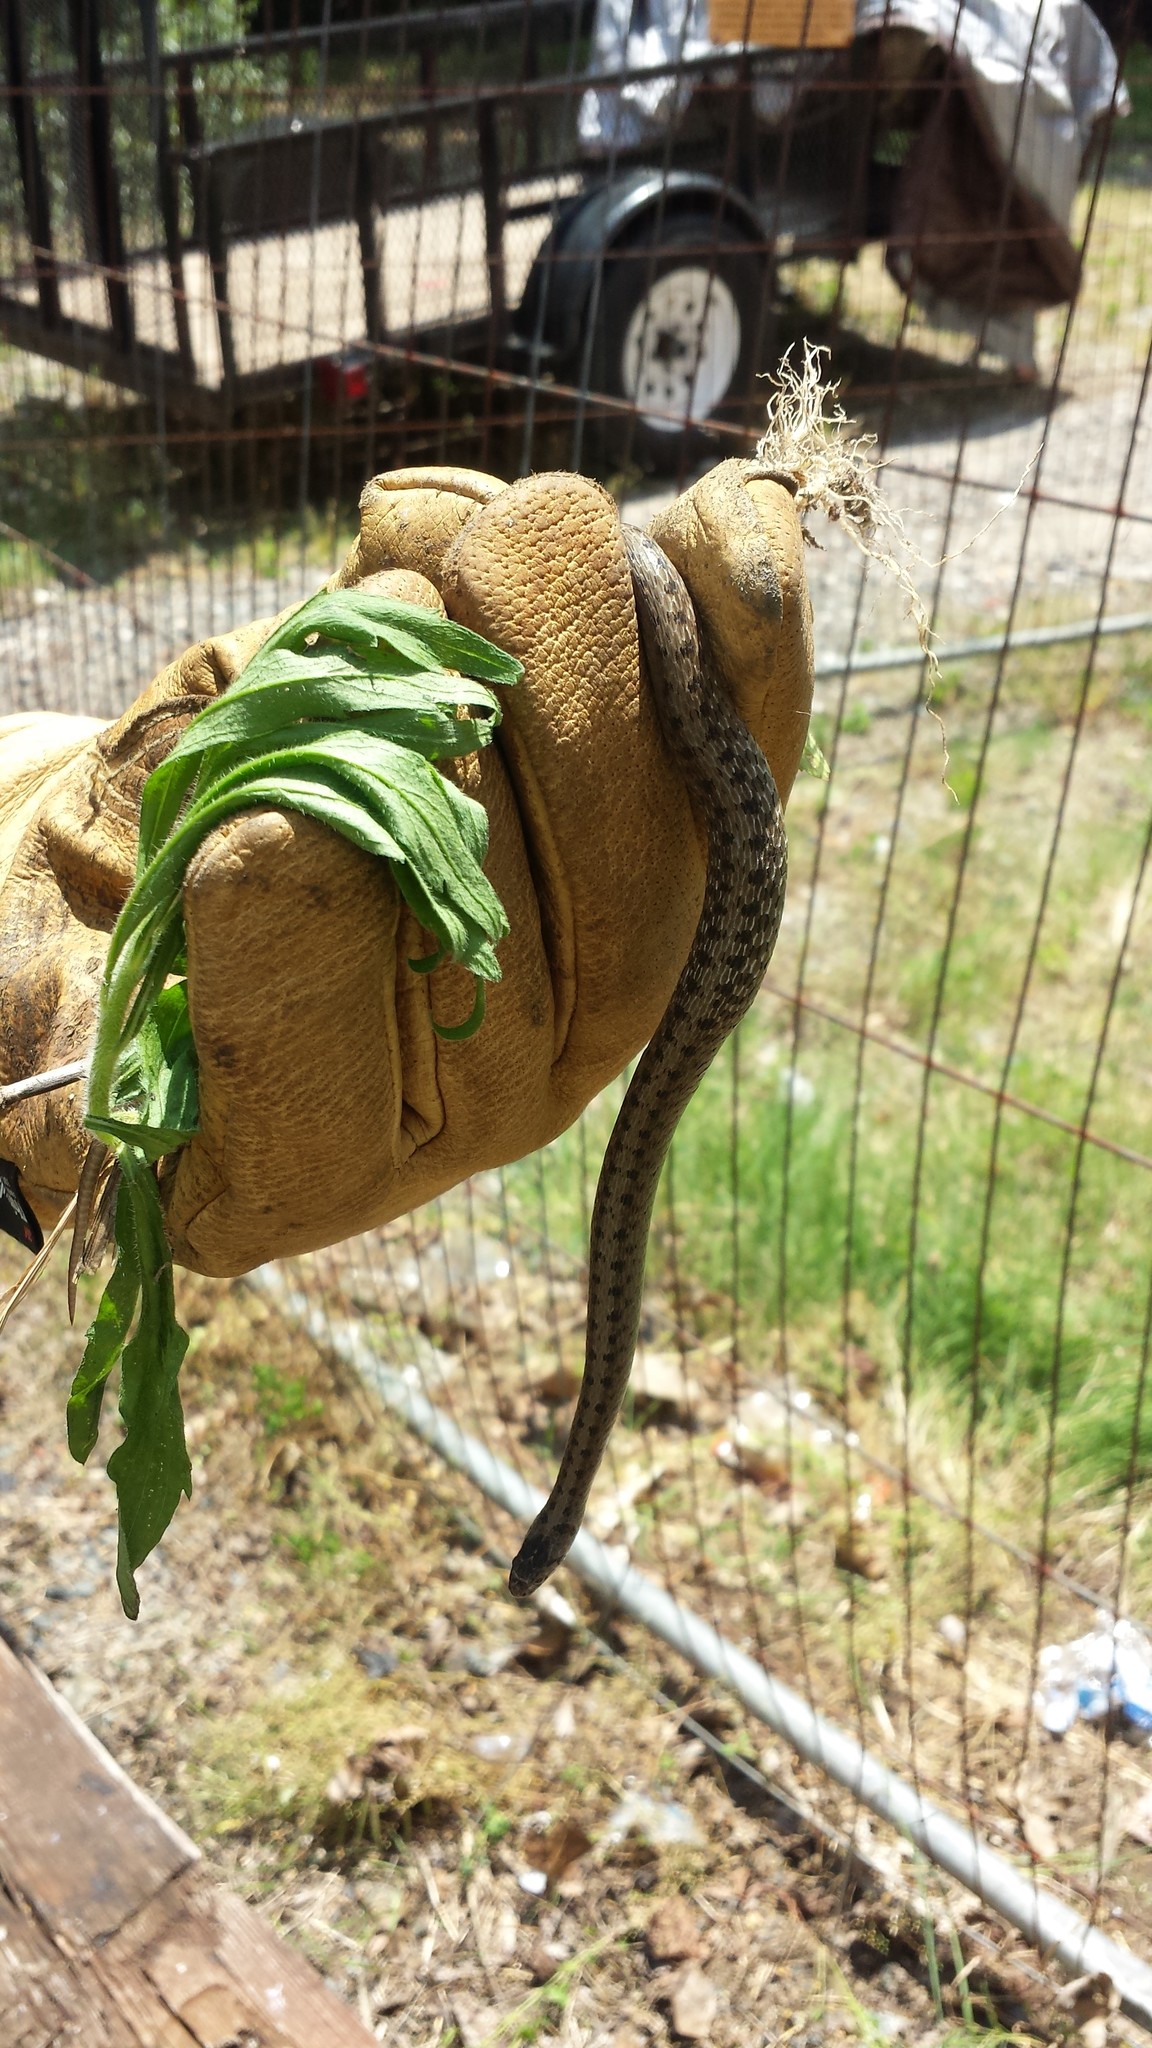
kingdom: Animalia
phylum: Chordata
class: Squamata
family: Colubridae
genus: Storeria
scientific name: Storeria dekayi
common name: (dekay’s) brown snake
